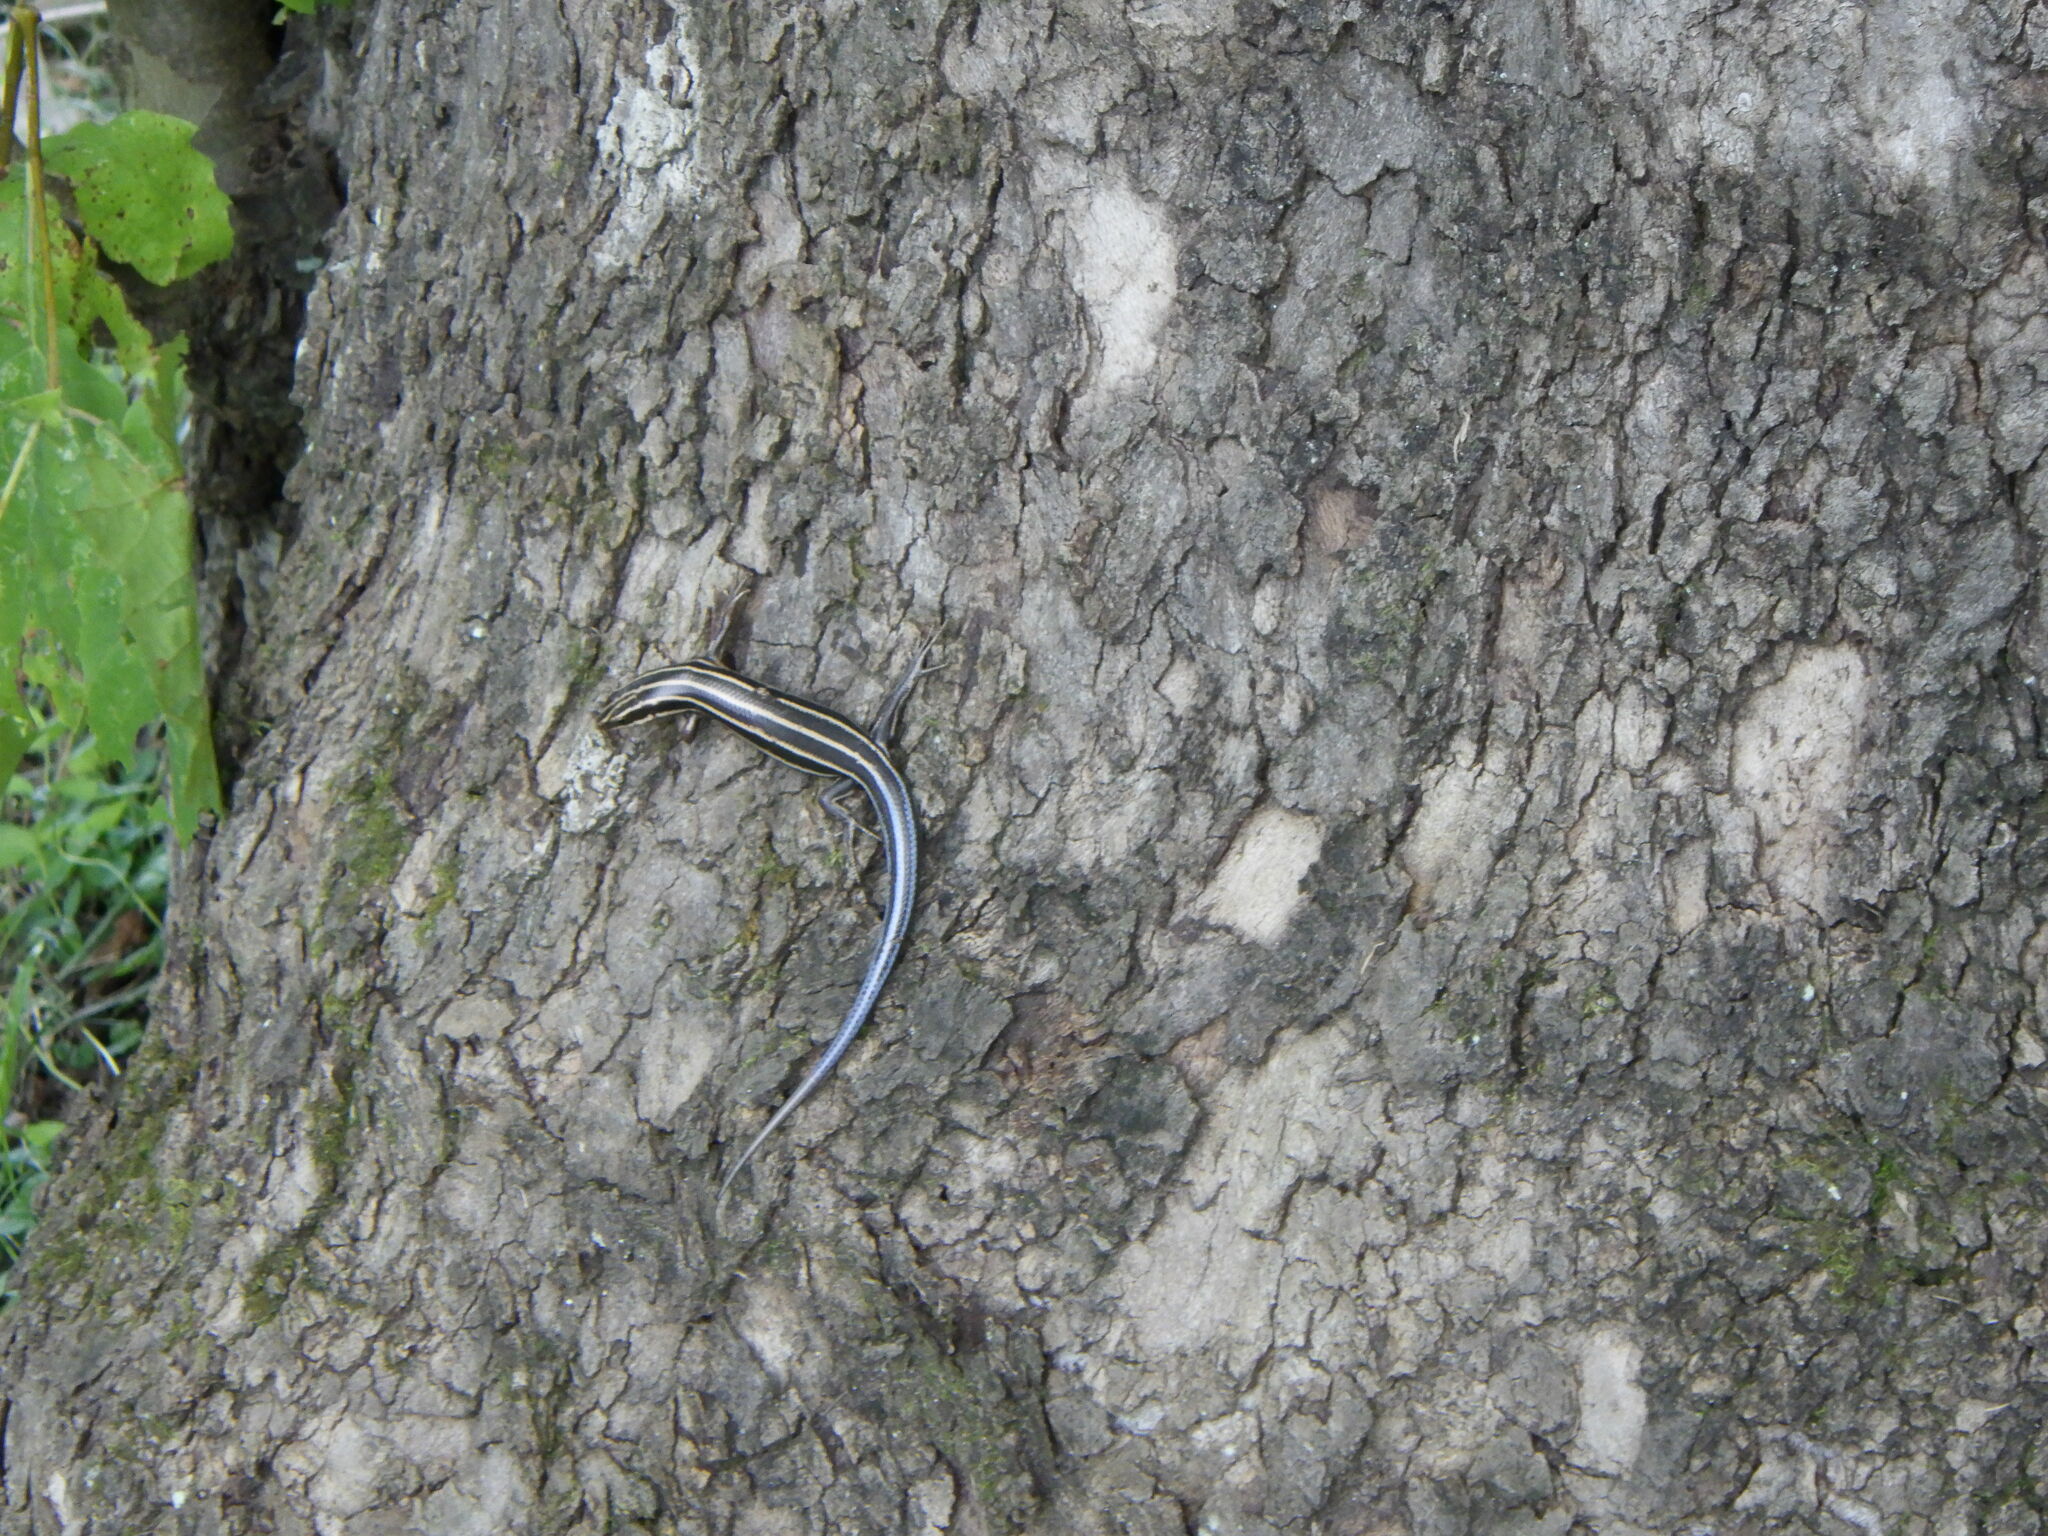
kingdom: Animalia
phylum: Chordata
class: Squamata
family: Scincidae
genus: Plestiodon
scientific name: Plestiodon fasciatus
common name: Five-lined skink
